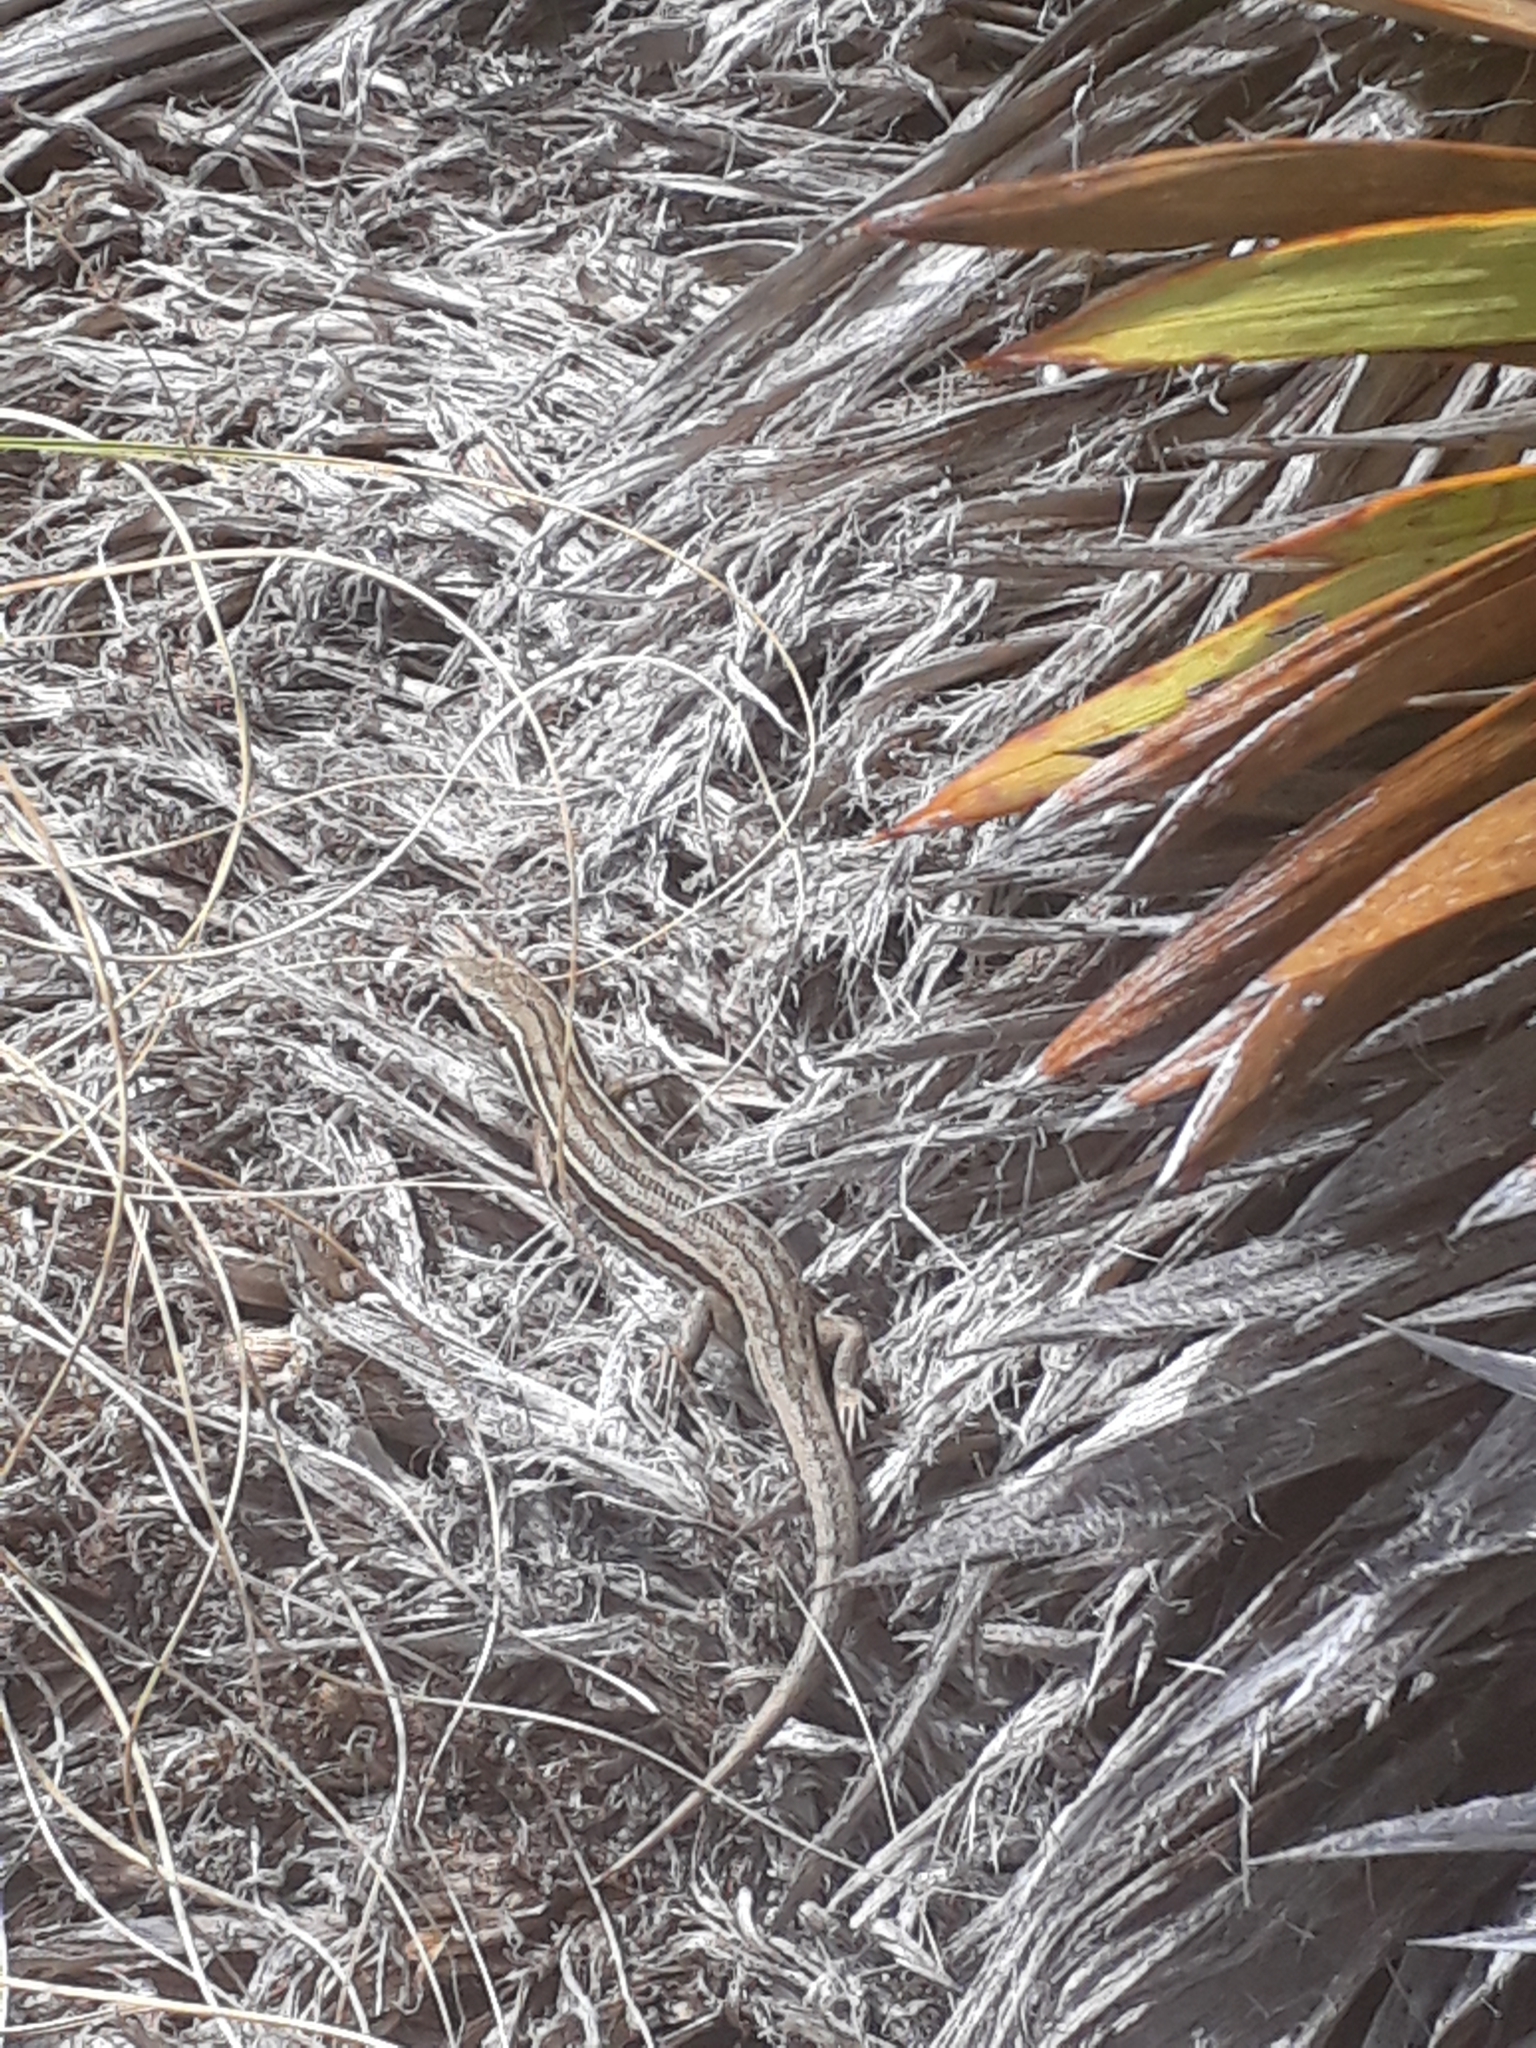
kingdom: Animalia
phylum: Chordata
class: Squamata
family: Scincidae
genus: Oligosoma
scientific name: Oligosoma maccanni
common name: Mccann’s skink
